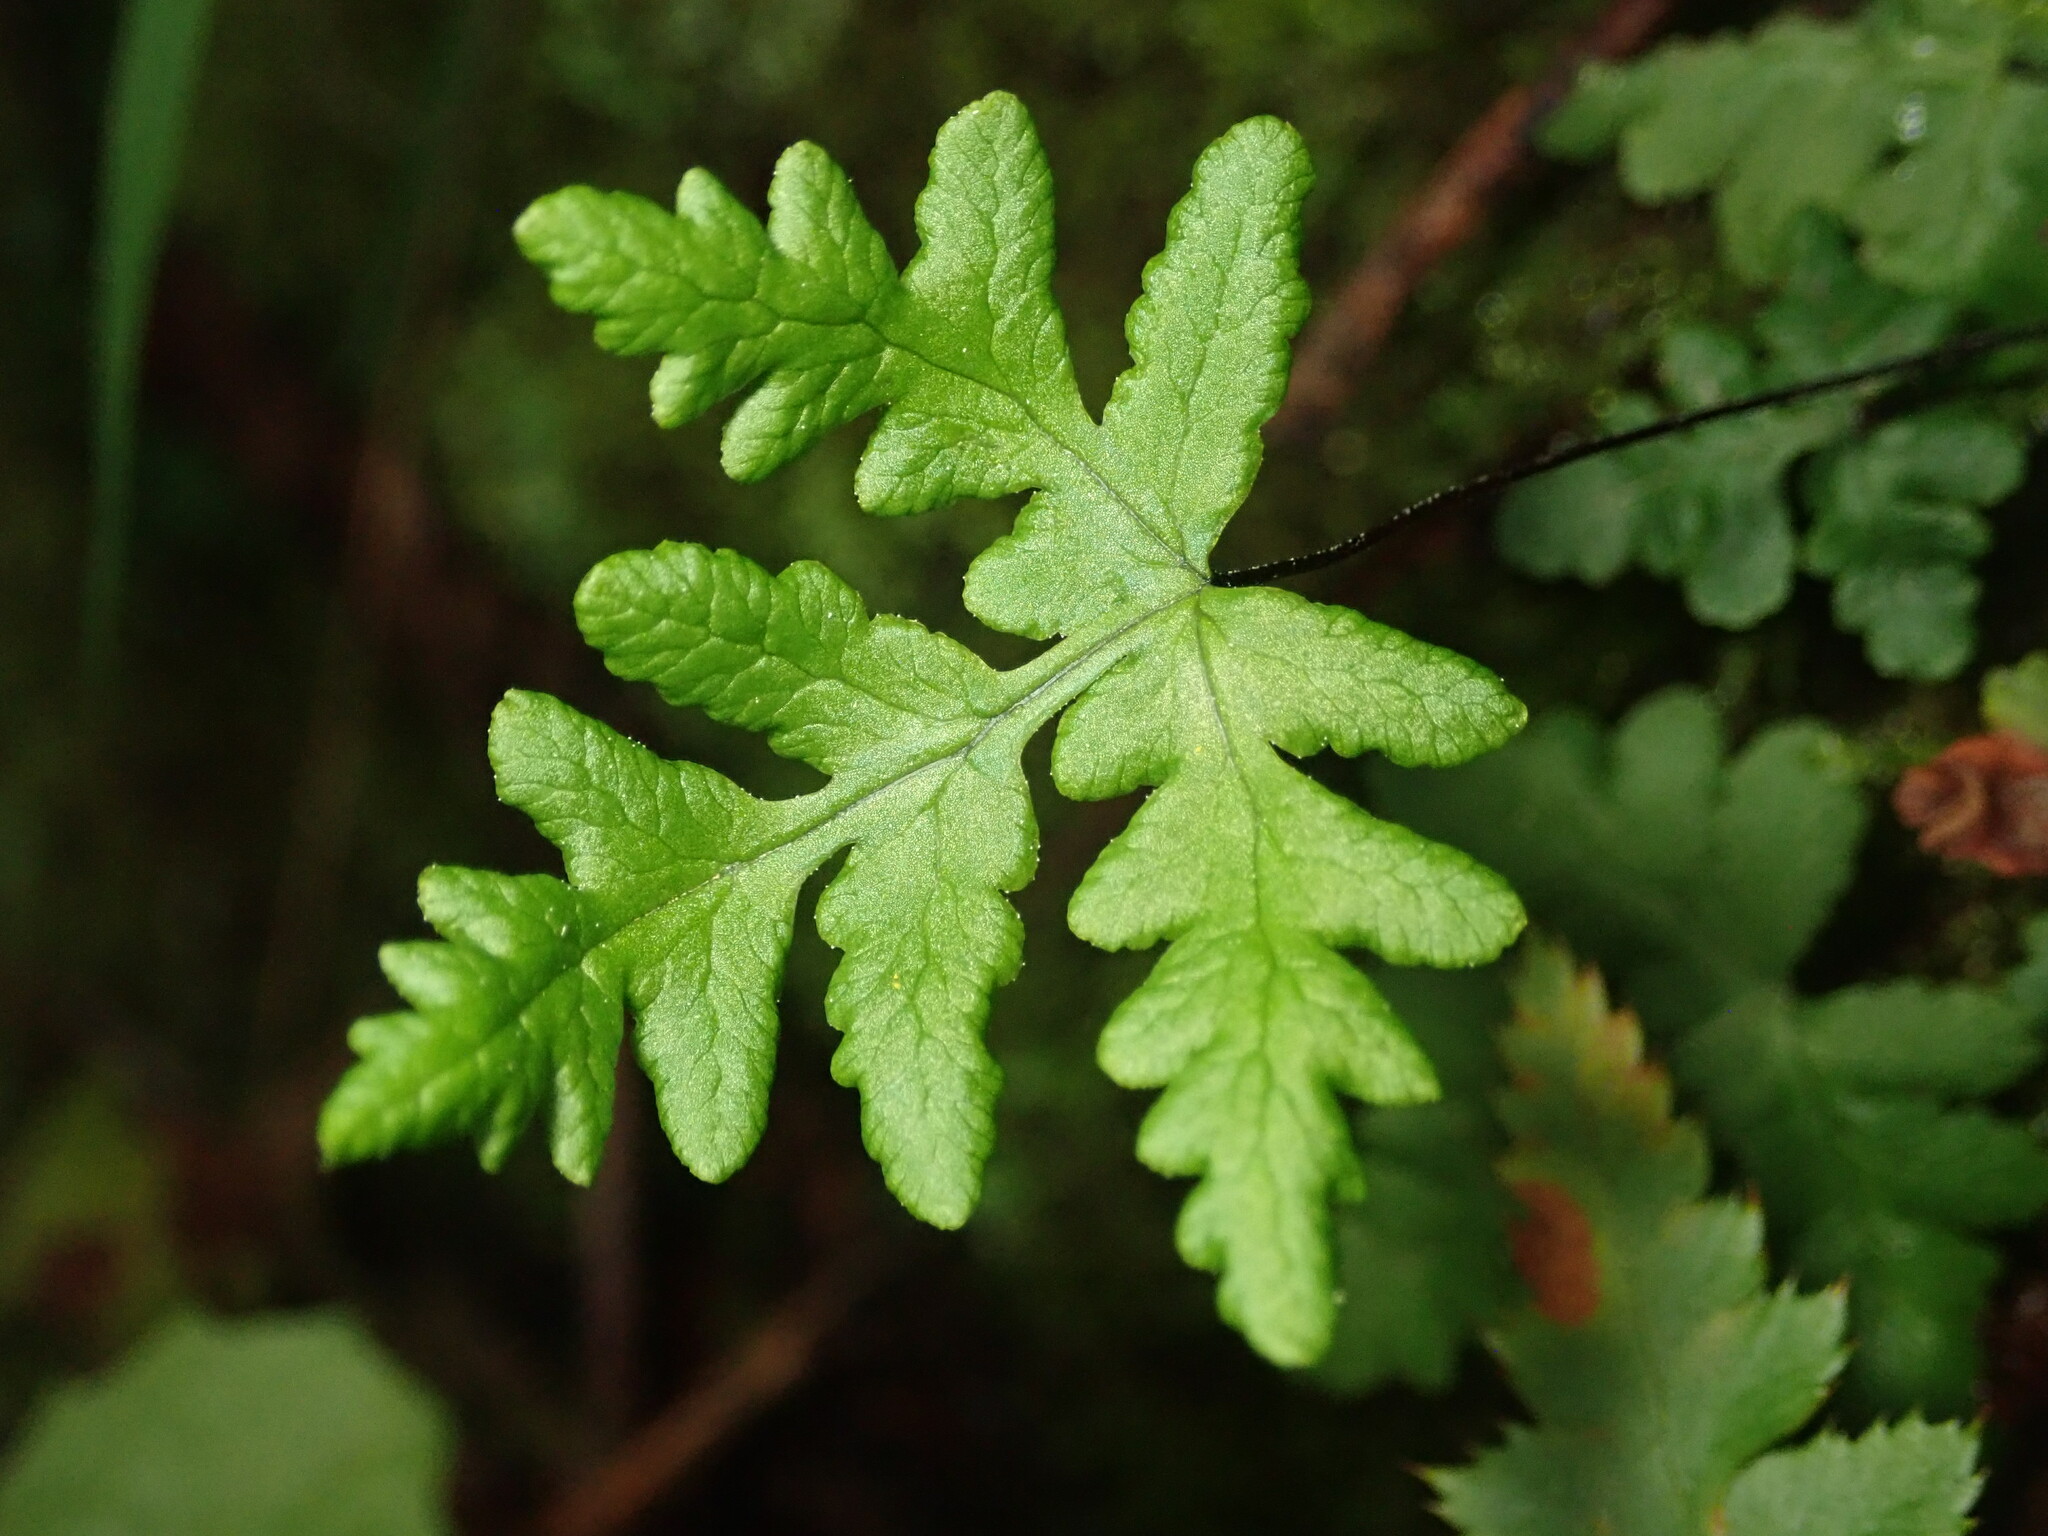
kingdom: Plantae
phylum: Tracheophyta
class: Polypodiopsida
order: Polypodiales
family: Pteridaceae
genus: Pentagramma
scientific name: Pentagramma triangularis
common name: Gold fern
